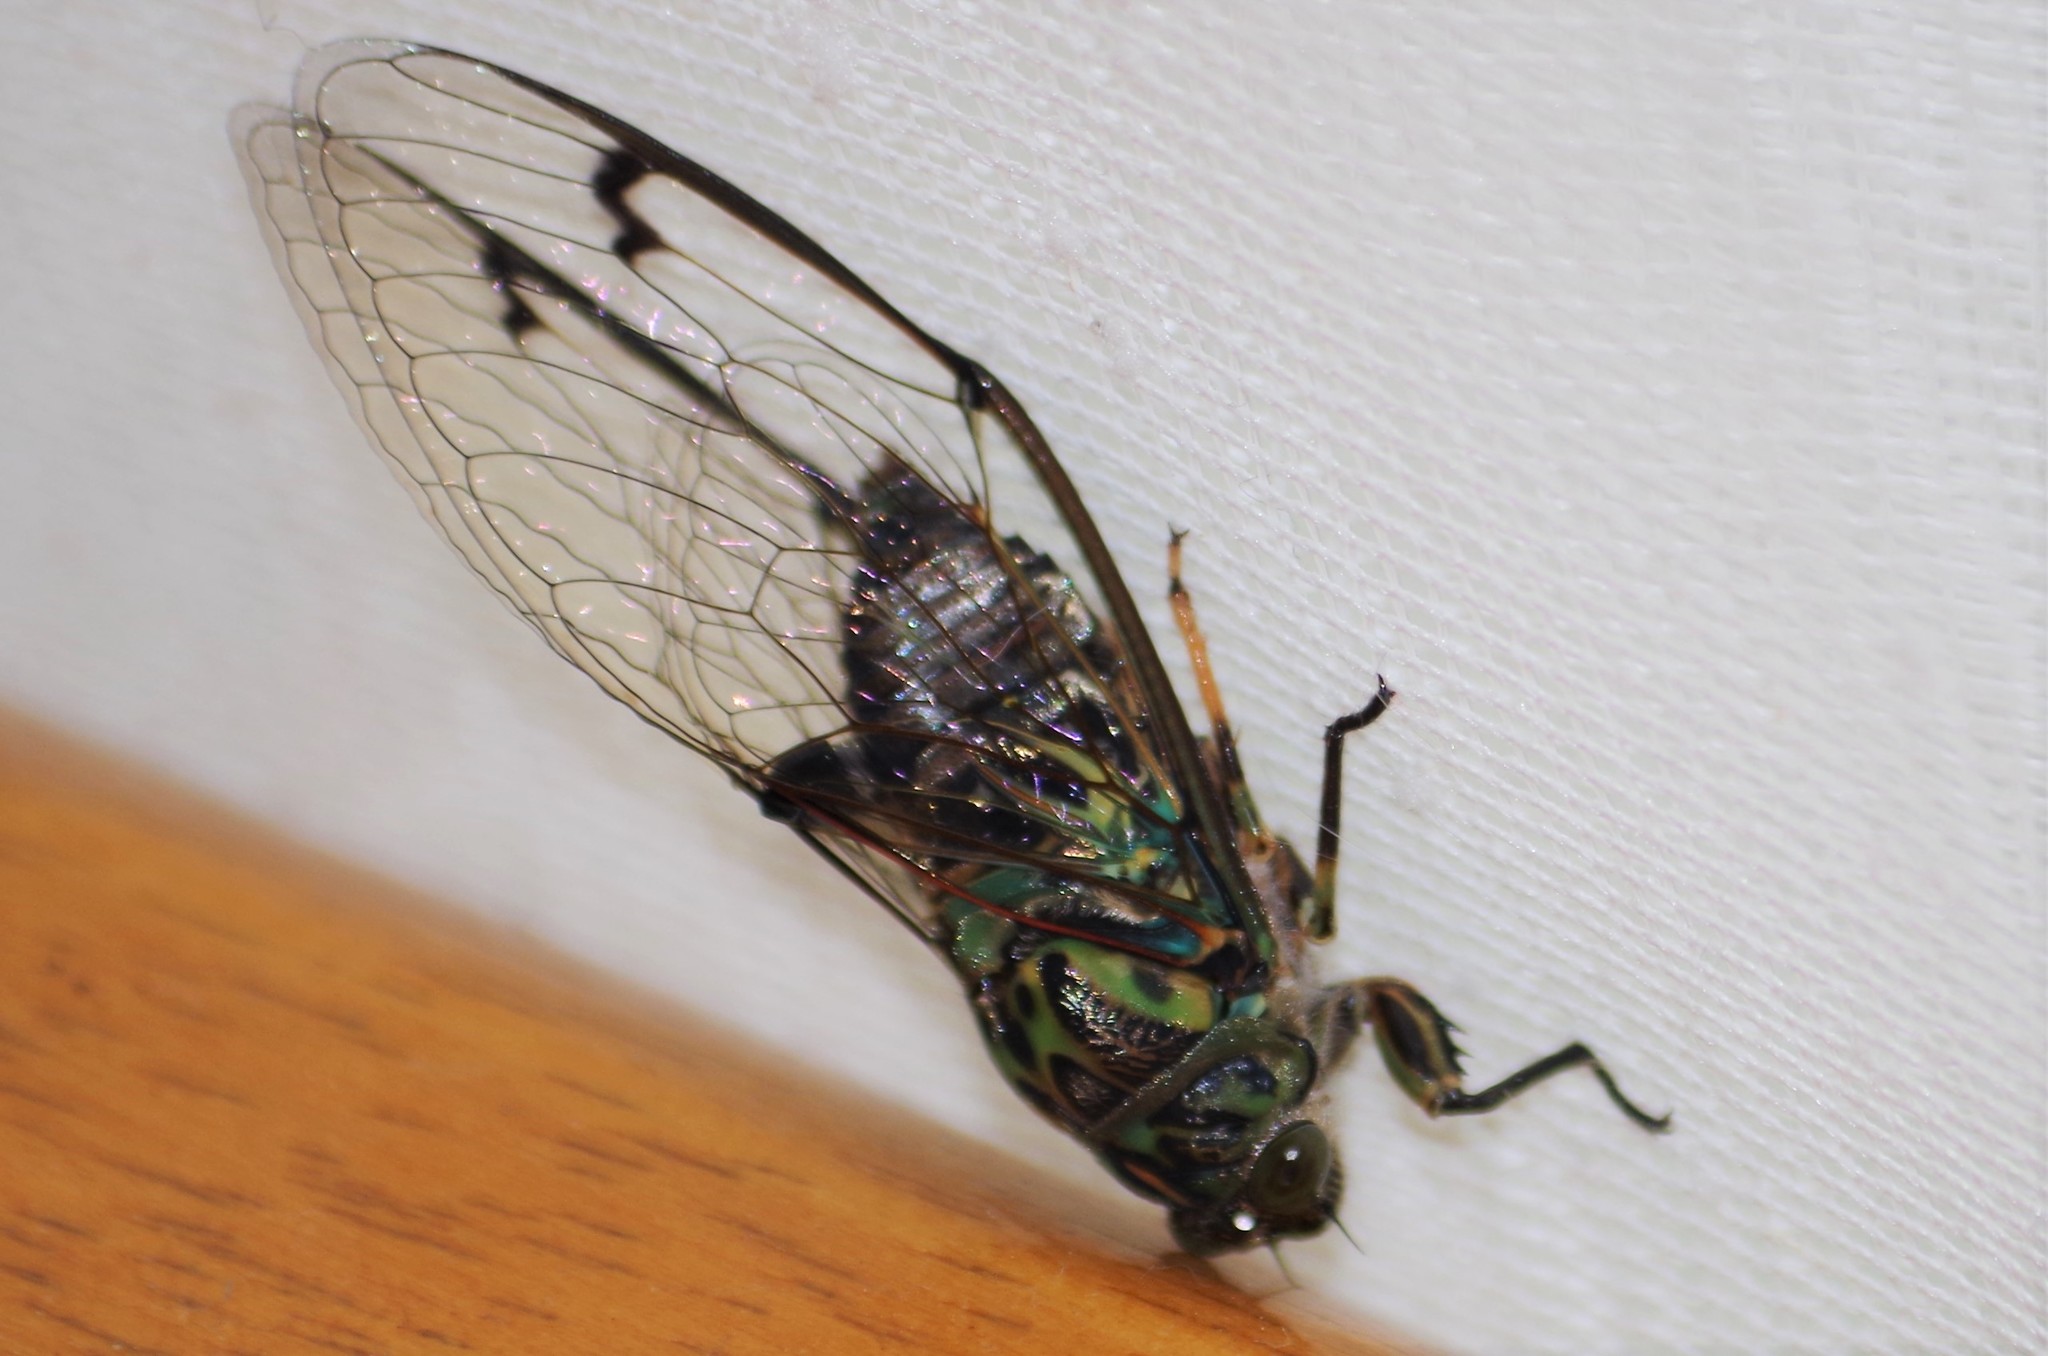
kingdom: Animalia
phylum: Arthropoda
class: Insecta
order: Hemiptera
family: Cicadidae
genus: Amphipsalta
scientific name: Amphipsalta zelandica
